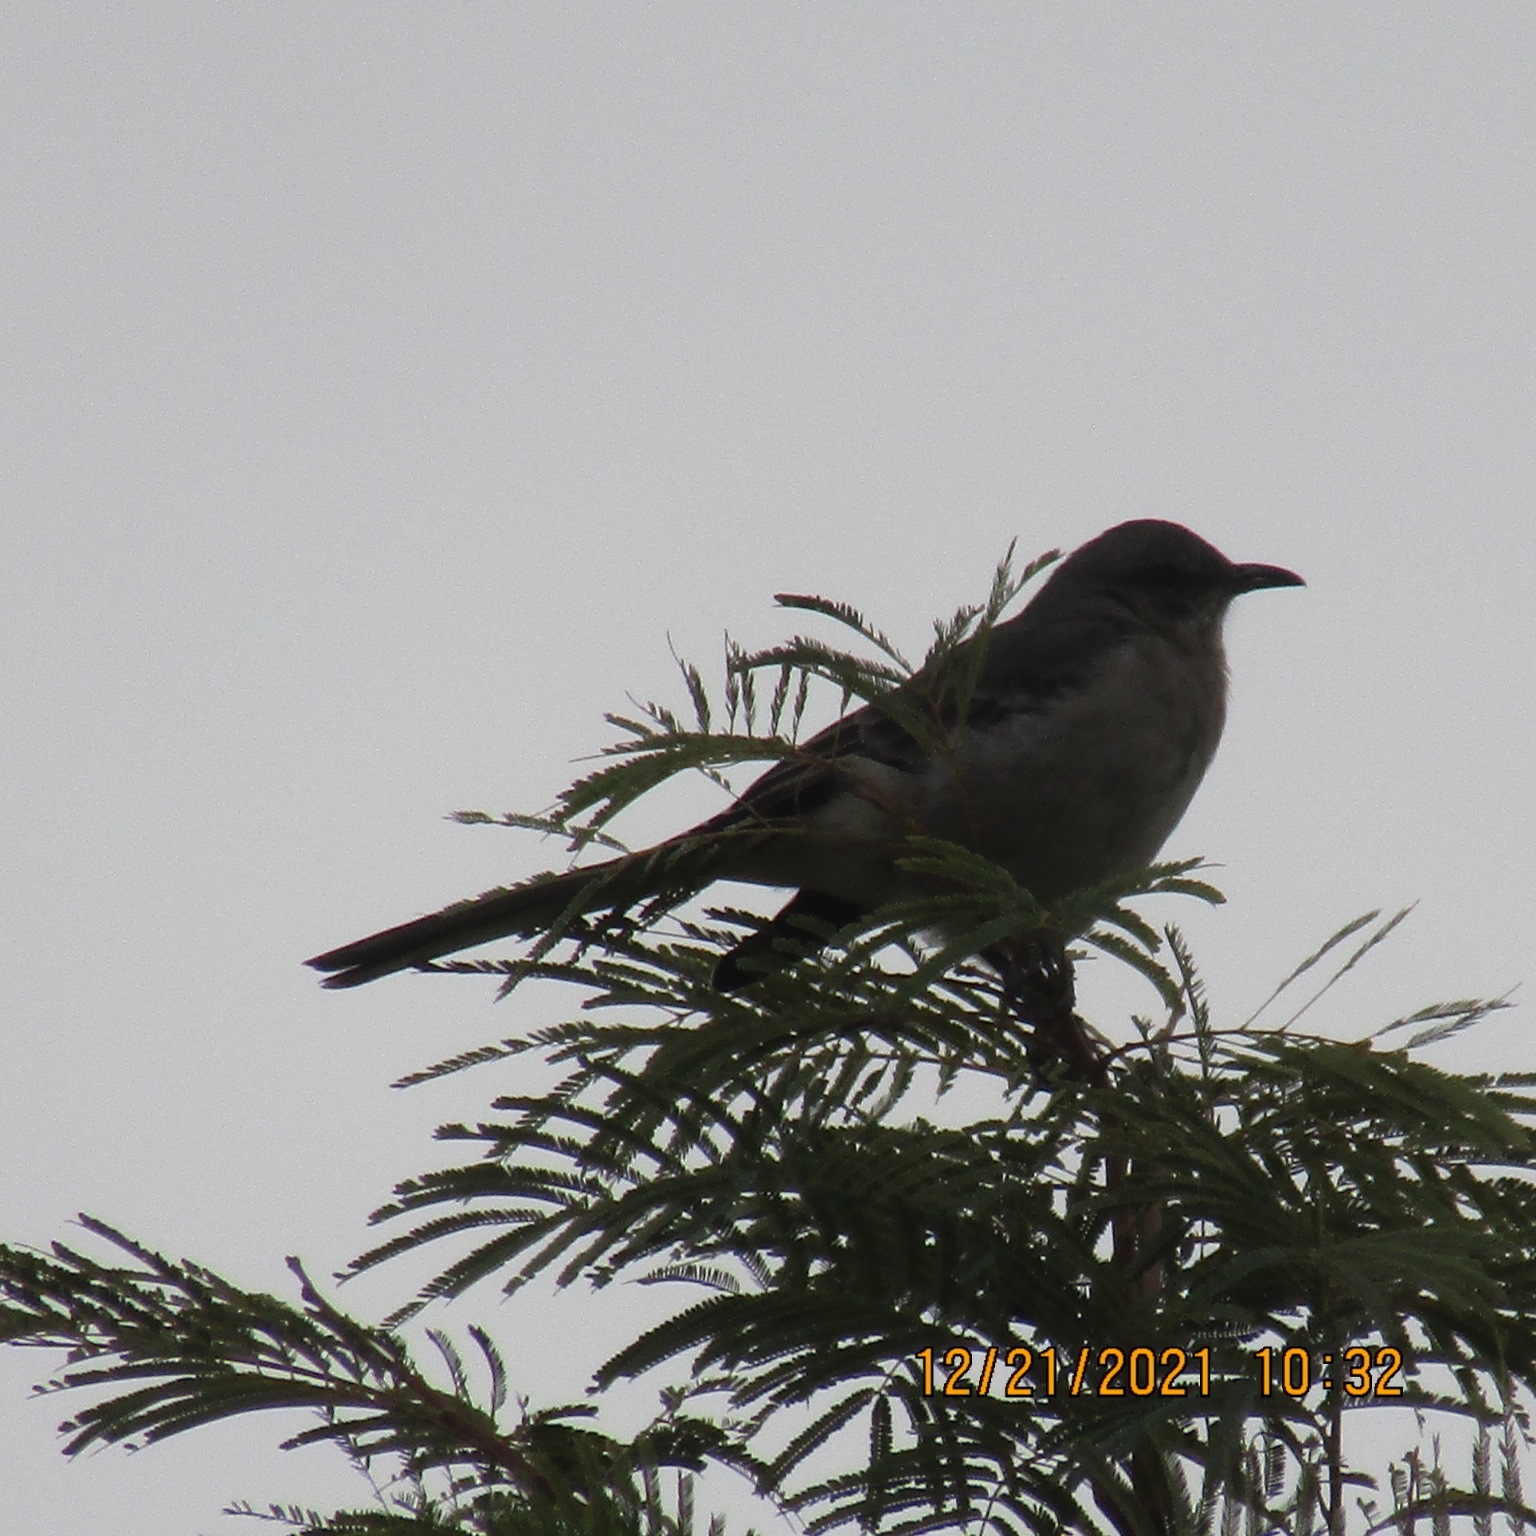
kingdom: Animalia
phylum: Chordata
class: Aves
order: Passeriformes
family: Mimidae
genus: Mimus
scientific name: Mimus polyglottos
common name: Northern mockingbird
